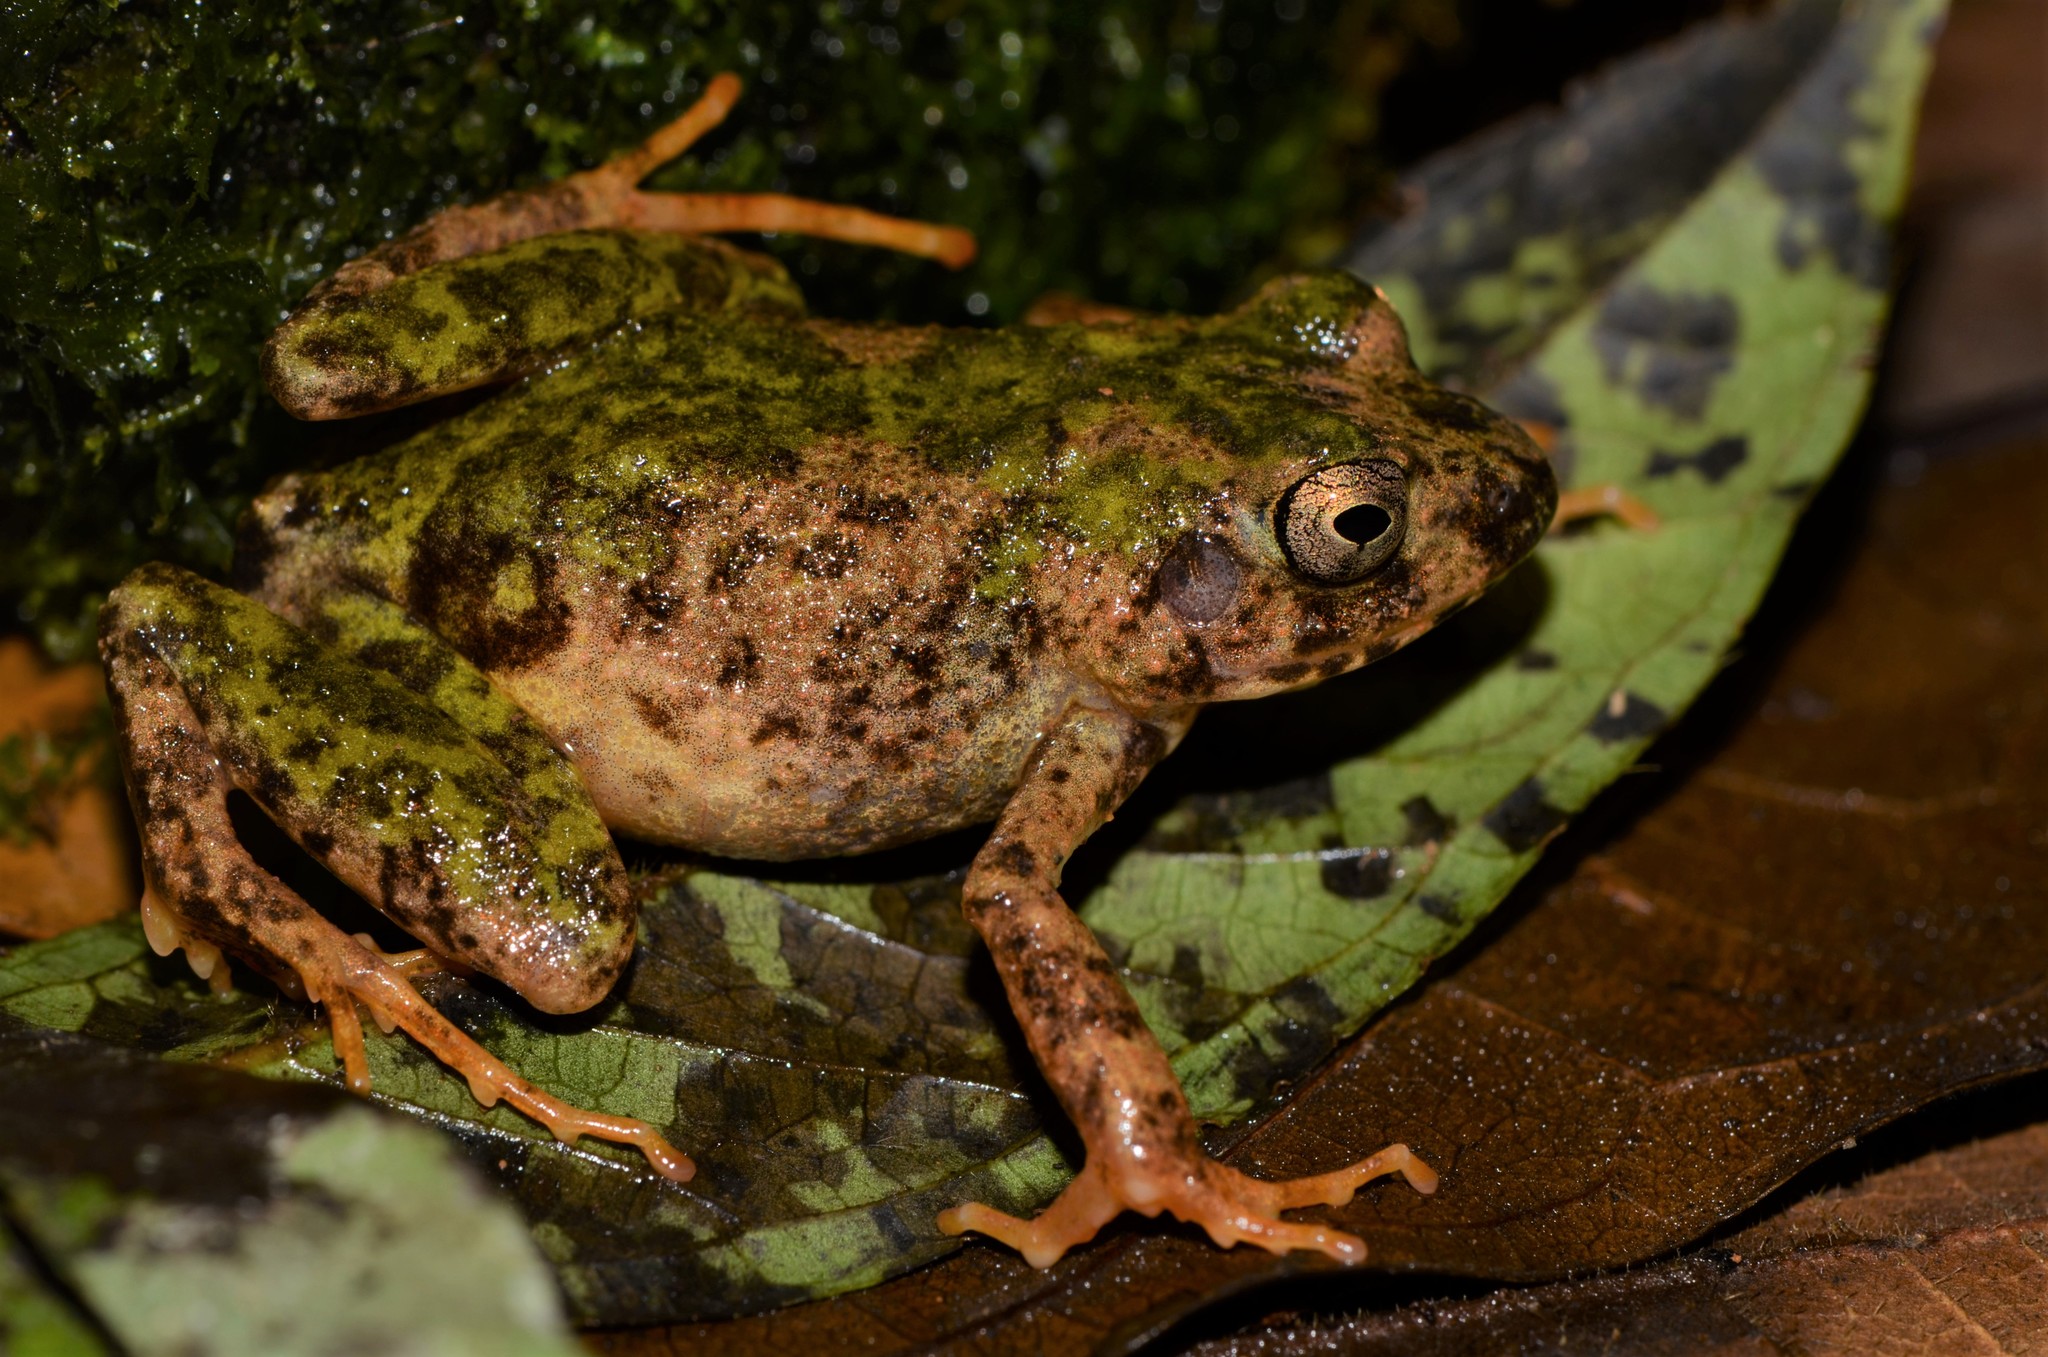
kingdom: Animalia
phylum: Chordata
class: Amphibia
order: Anura
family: Arthroleptidae
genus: Arthroleptis
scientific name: Arthroleptis adelphus
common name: Foulassi screeching frog
